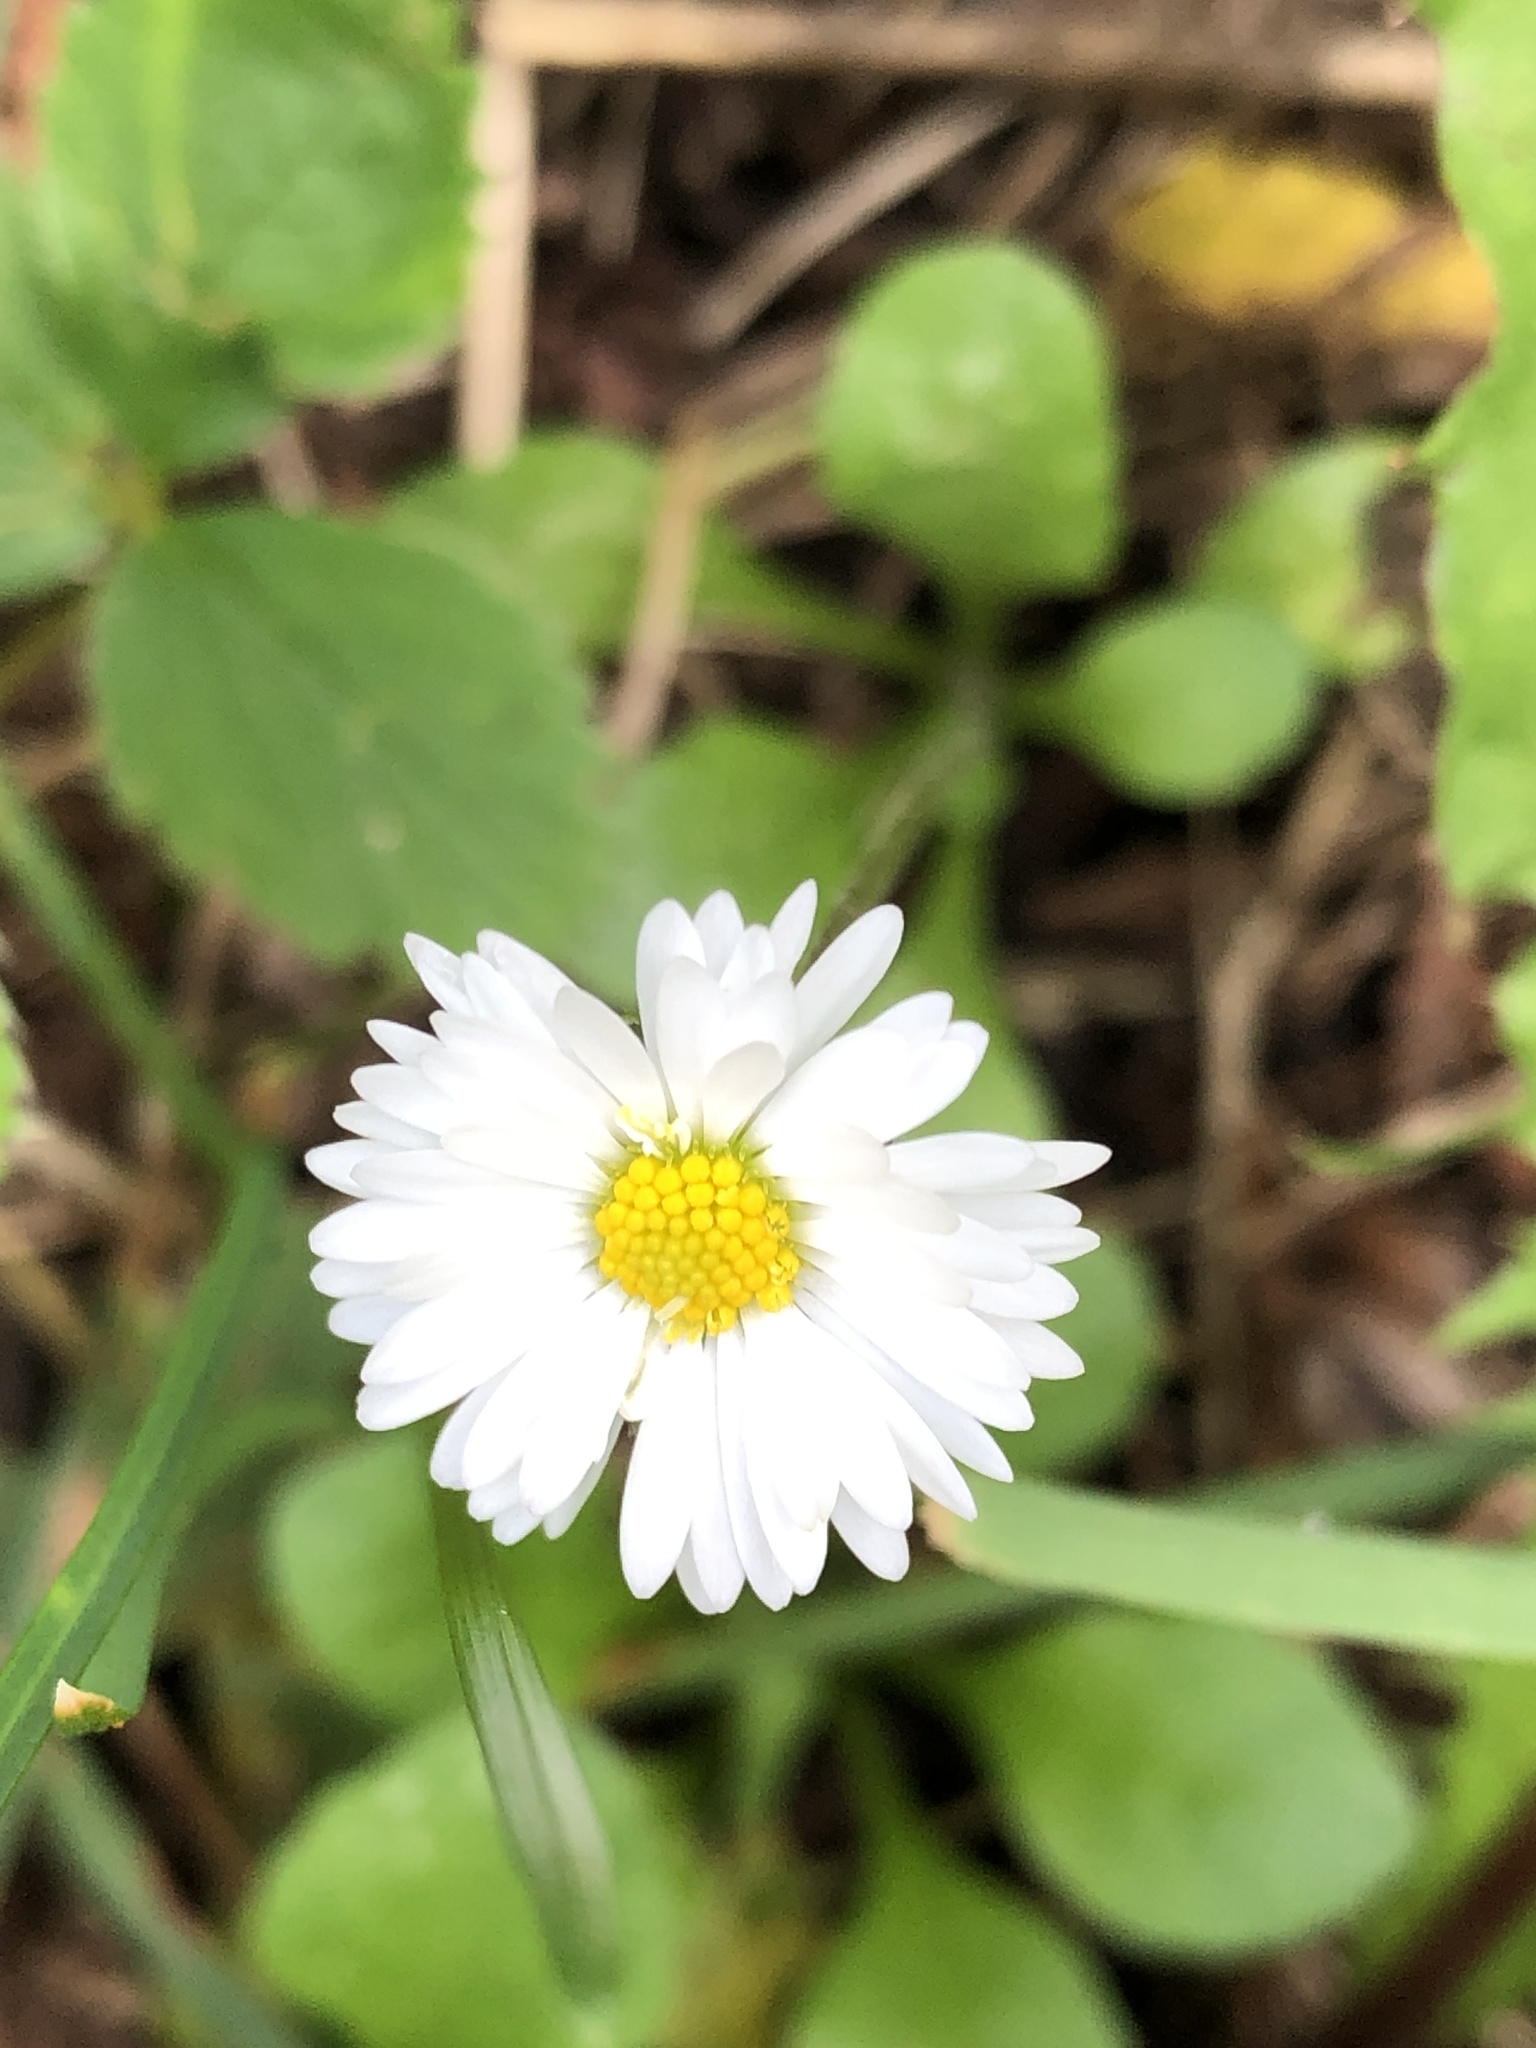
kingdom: Plantae
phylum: Tracheophyta
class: Magnoliopsida
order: Asterales
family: Asteraceae
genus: Bellis
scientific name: Bellis perennis
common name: Lawndaisy
